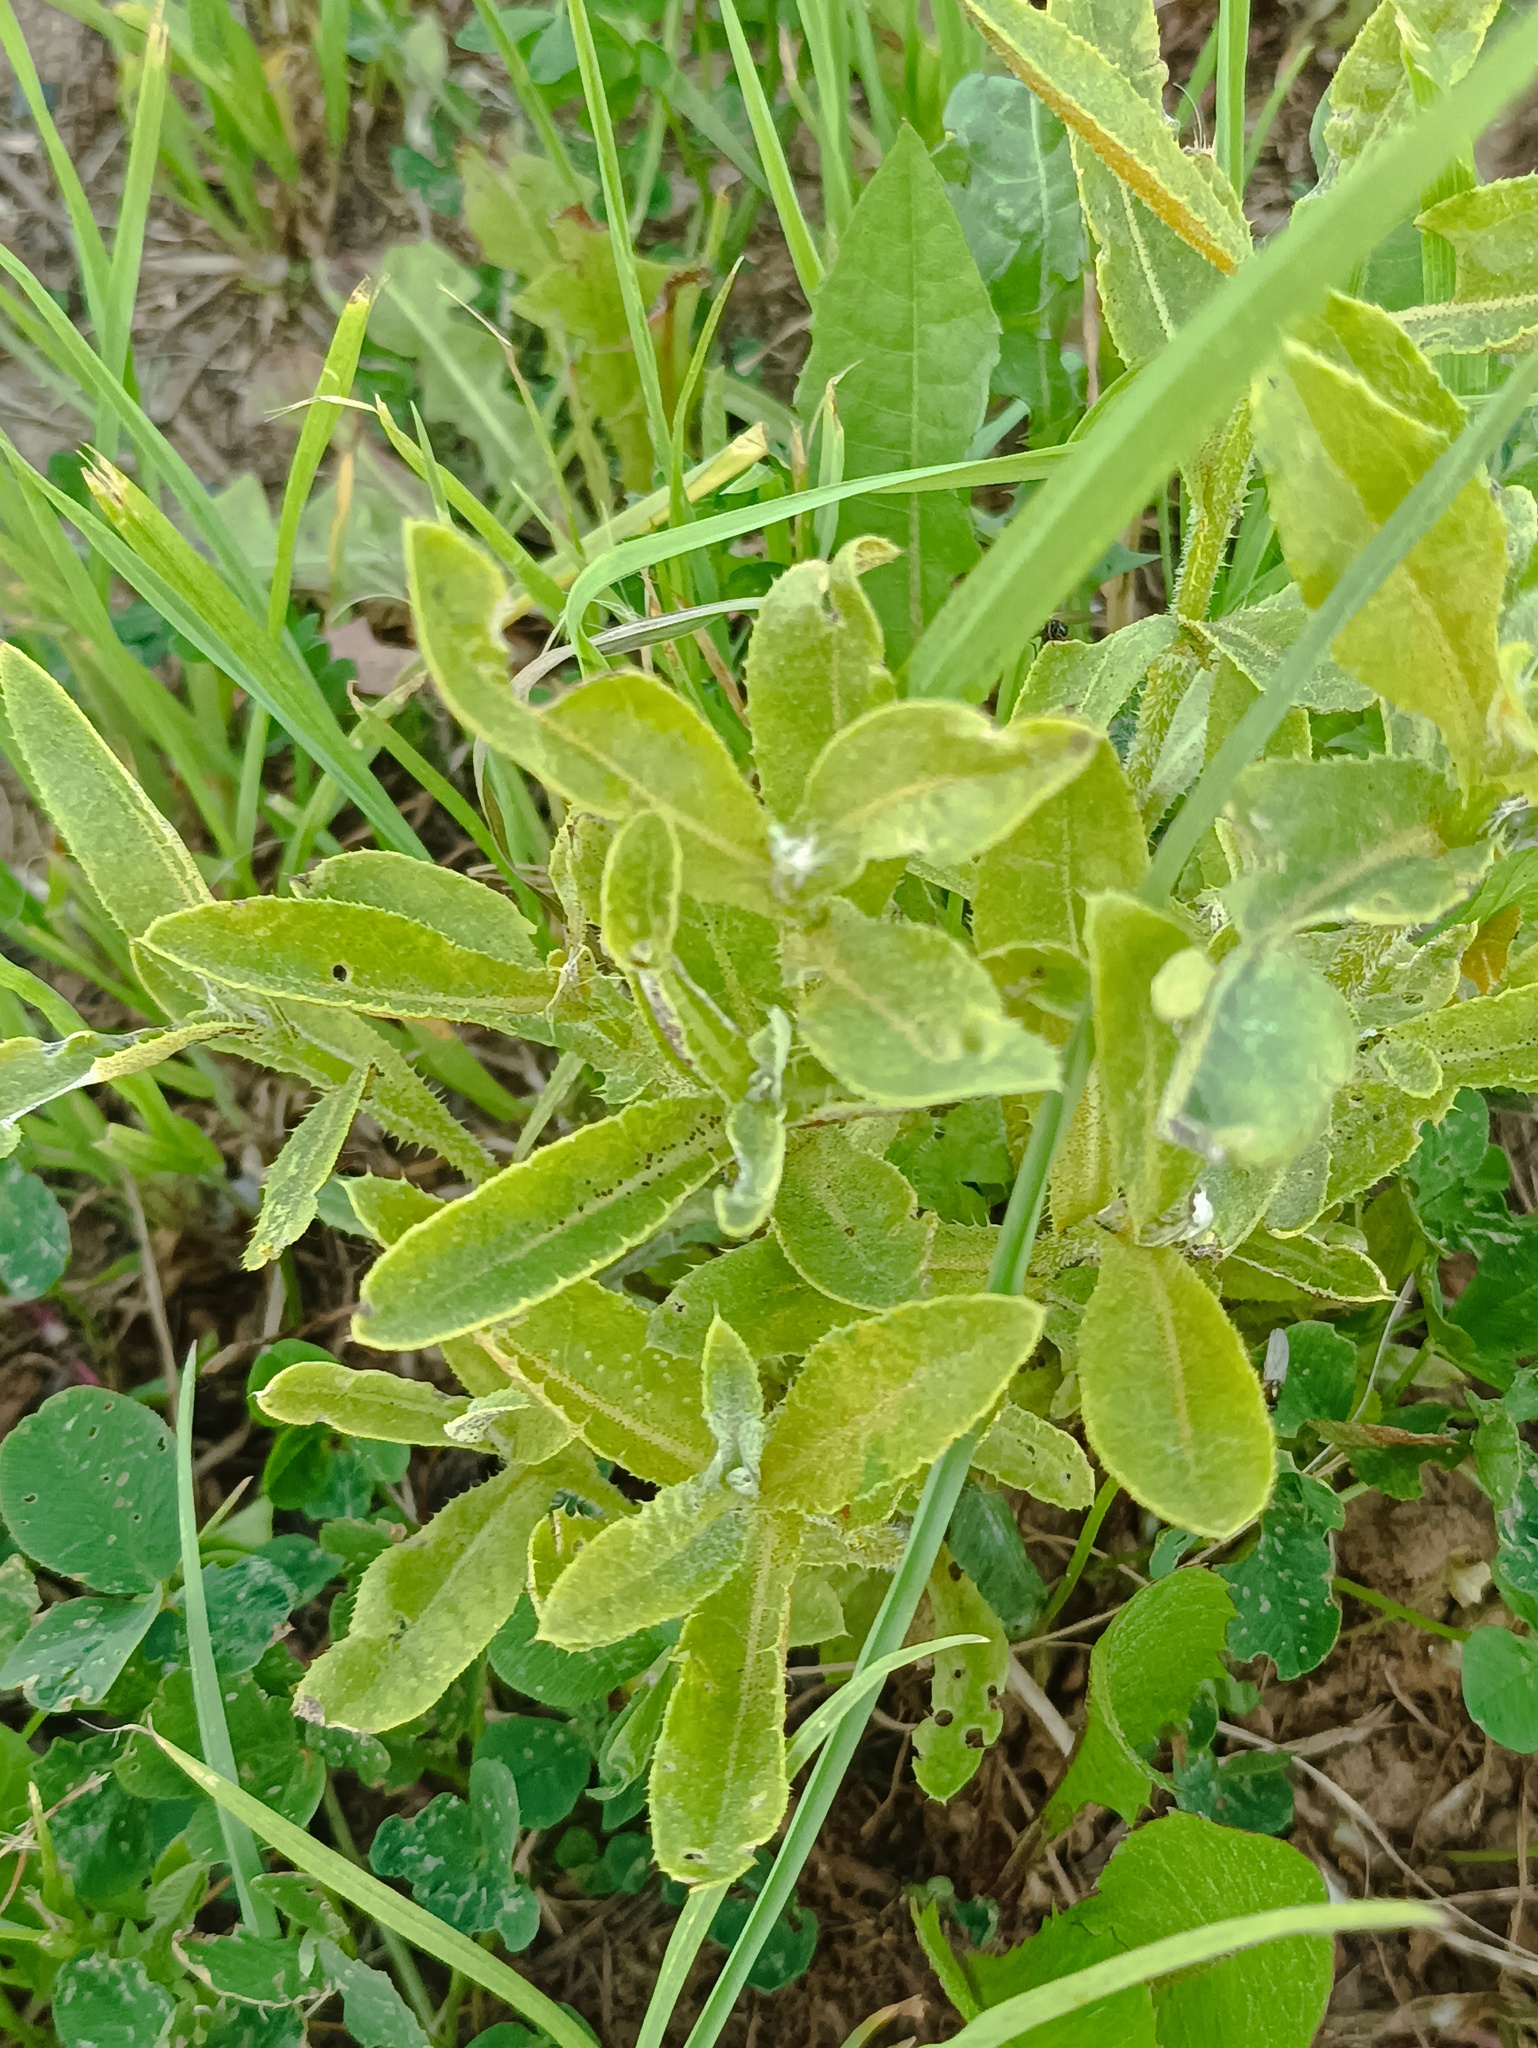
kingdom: Plantae
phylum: Tracheophyta
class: Magnoliopsida
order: Asterales
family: Asteraceae
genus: Cirsium
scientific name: Cirsium arvense
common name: Creeping thistle
